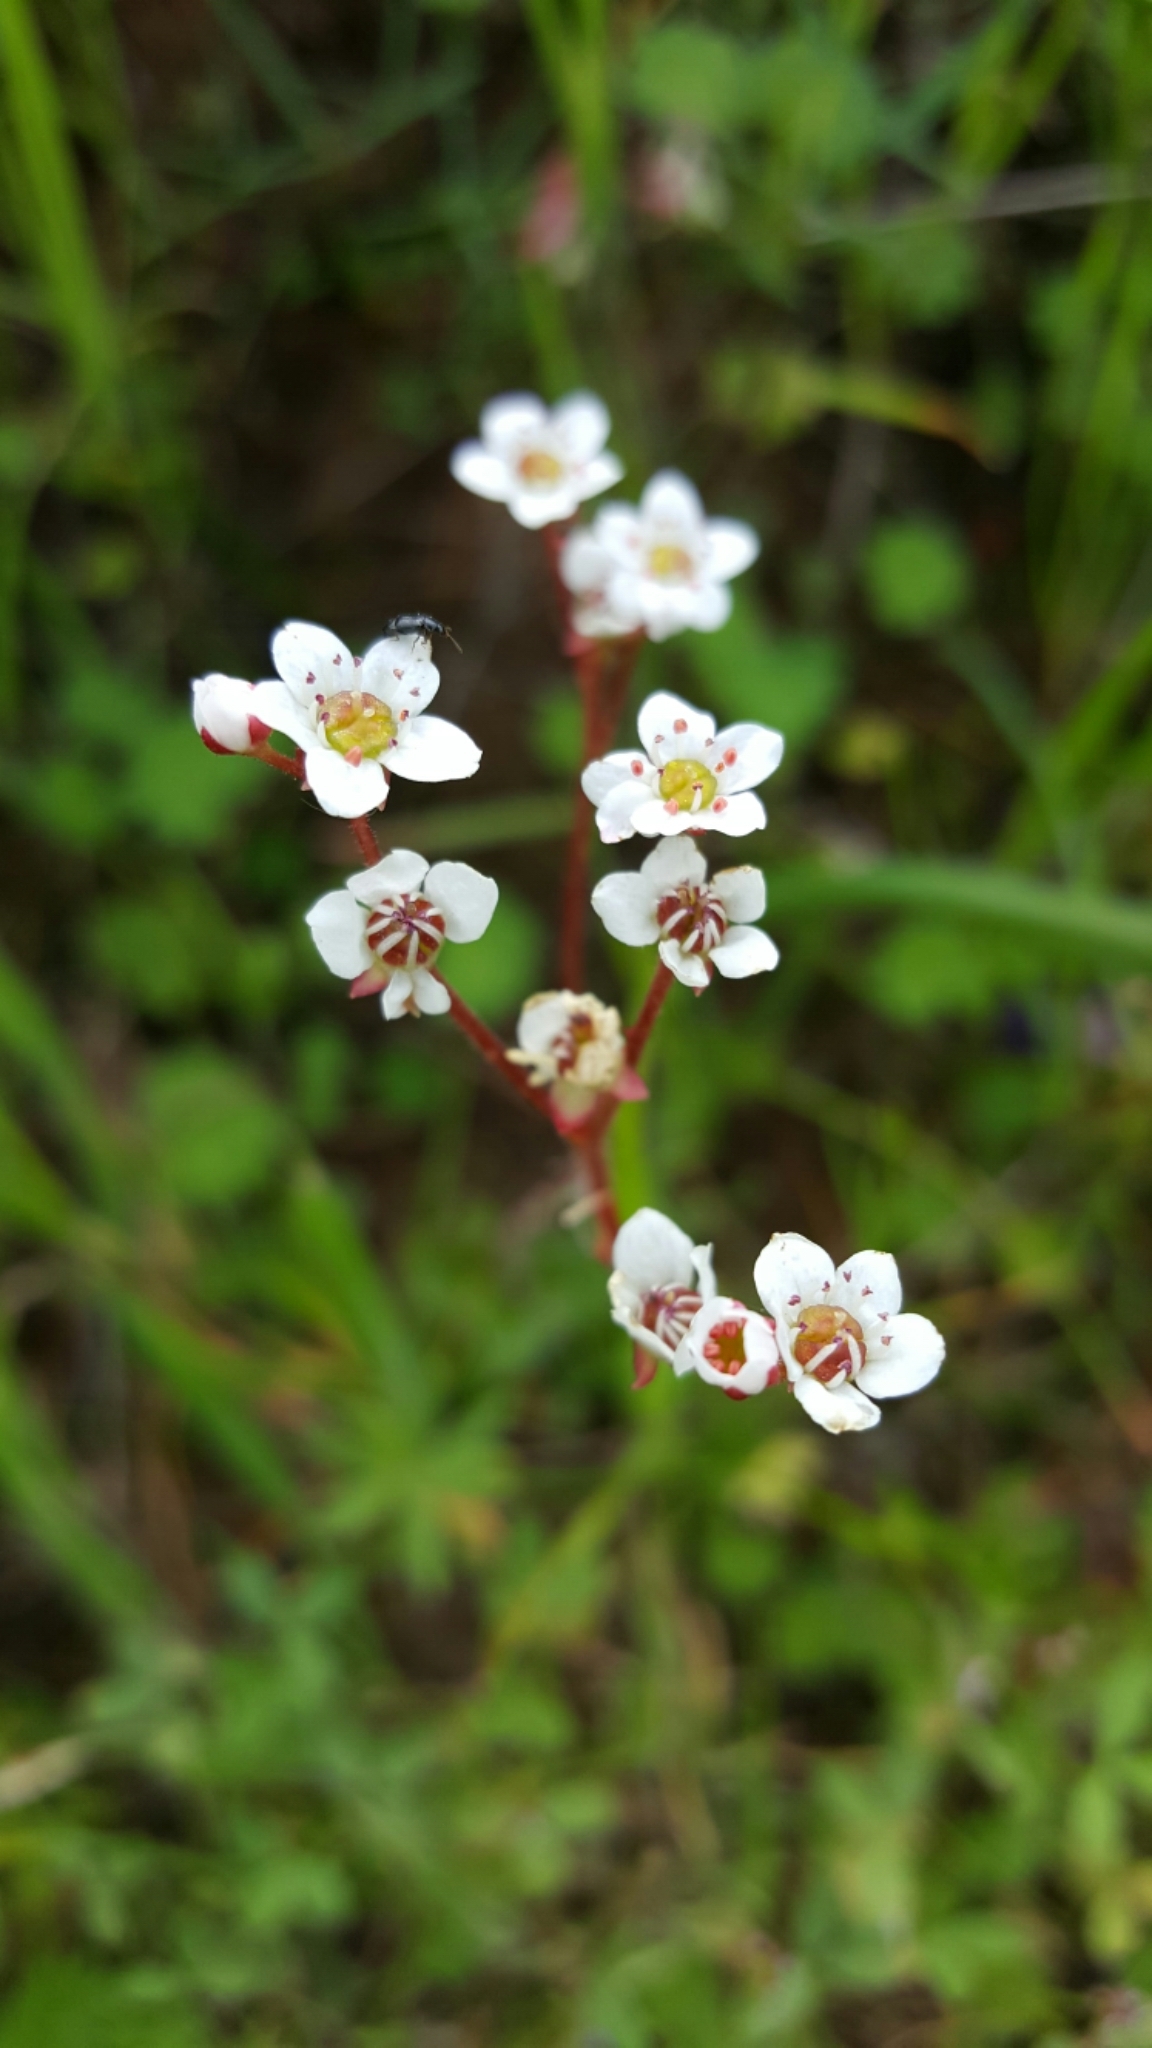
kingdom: Plantae
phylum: Tracheophyta
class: Magnoliopsida
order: Saxifragales
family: Saxifragaceae
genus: Micranthes
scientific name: Micranthes californica
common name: California saxifrage
